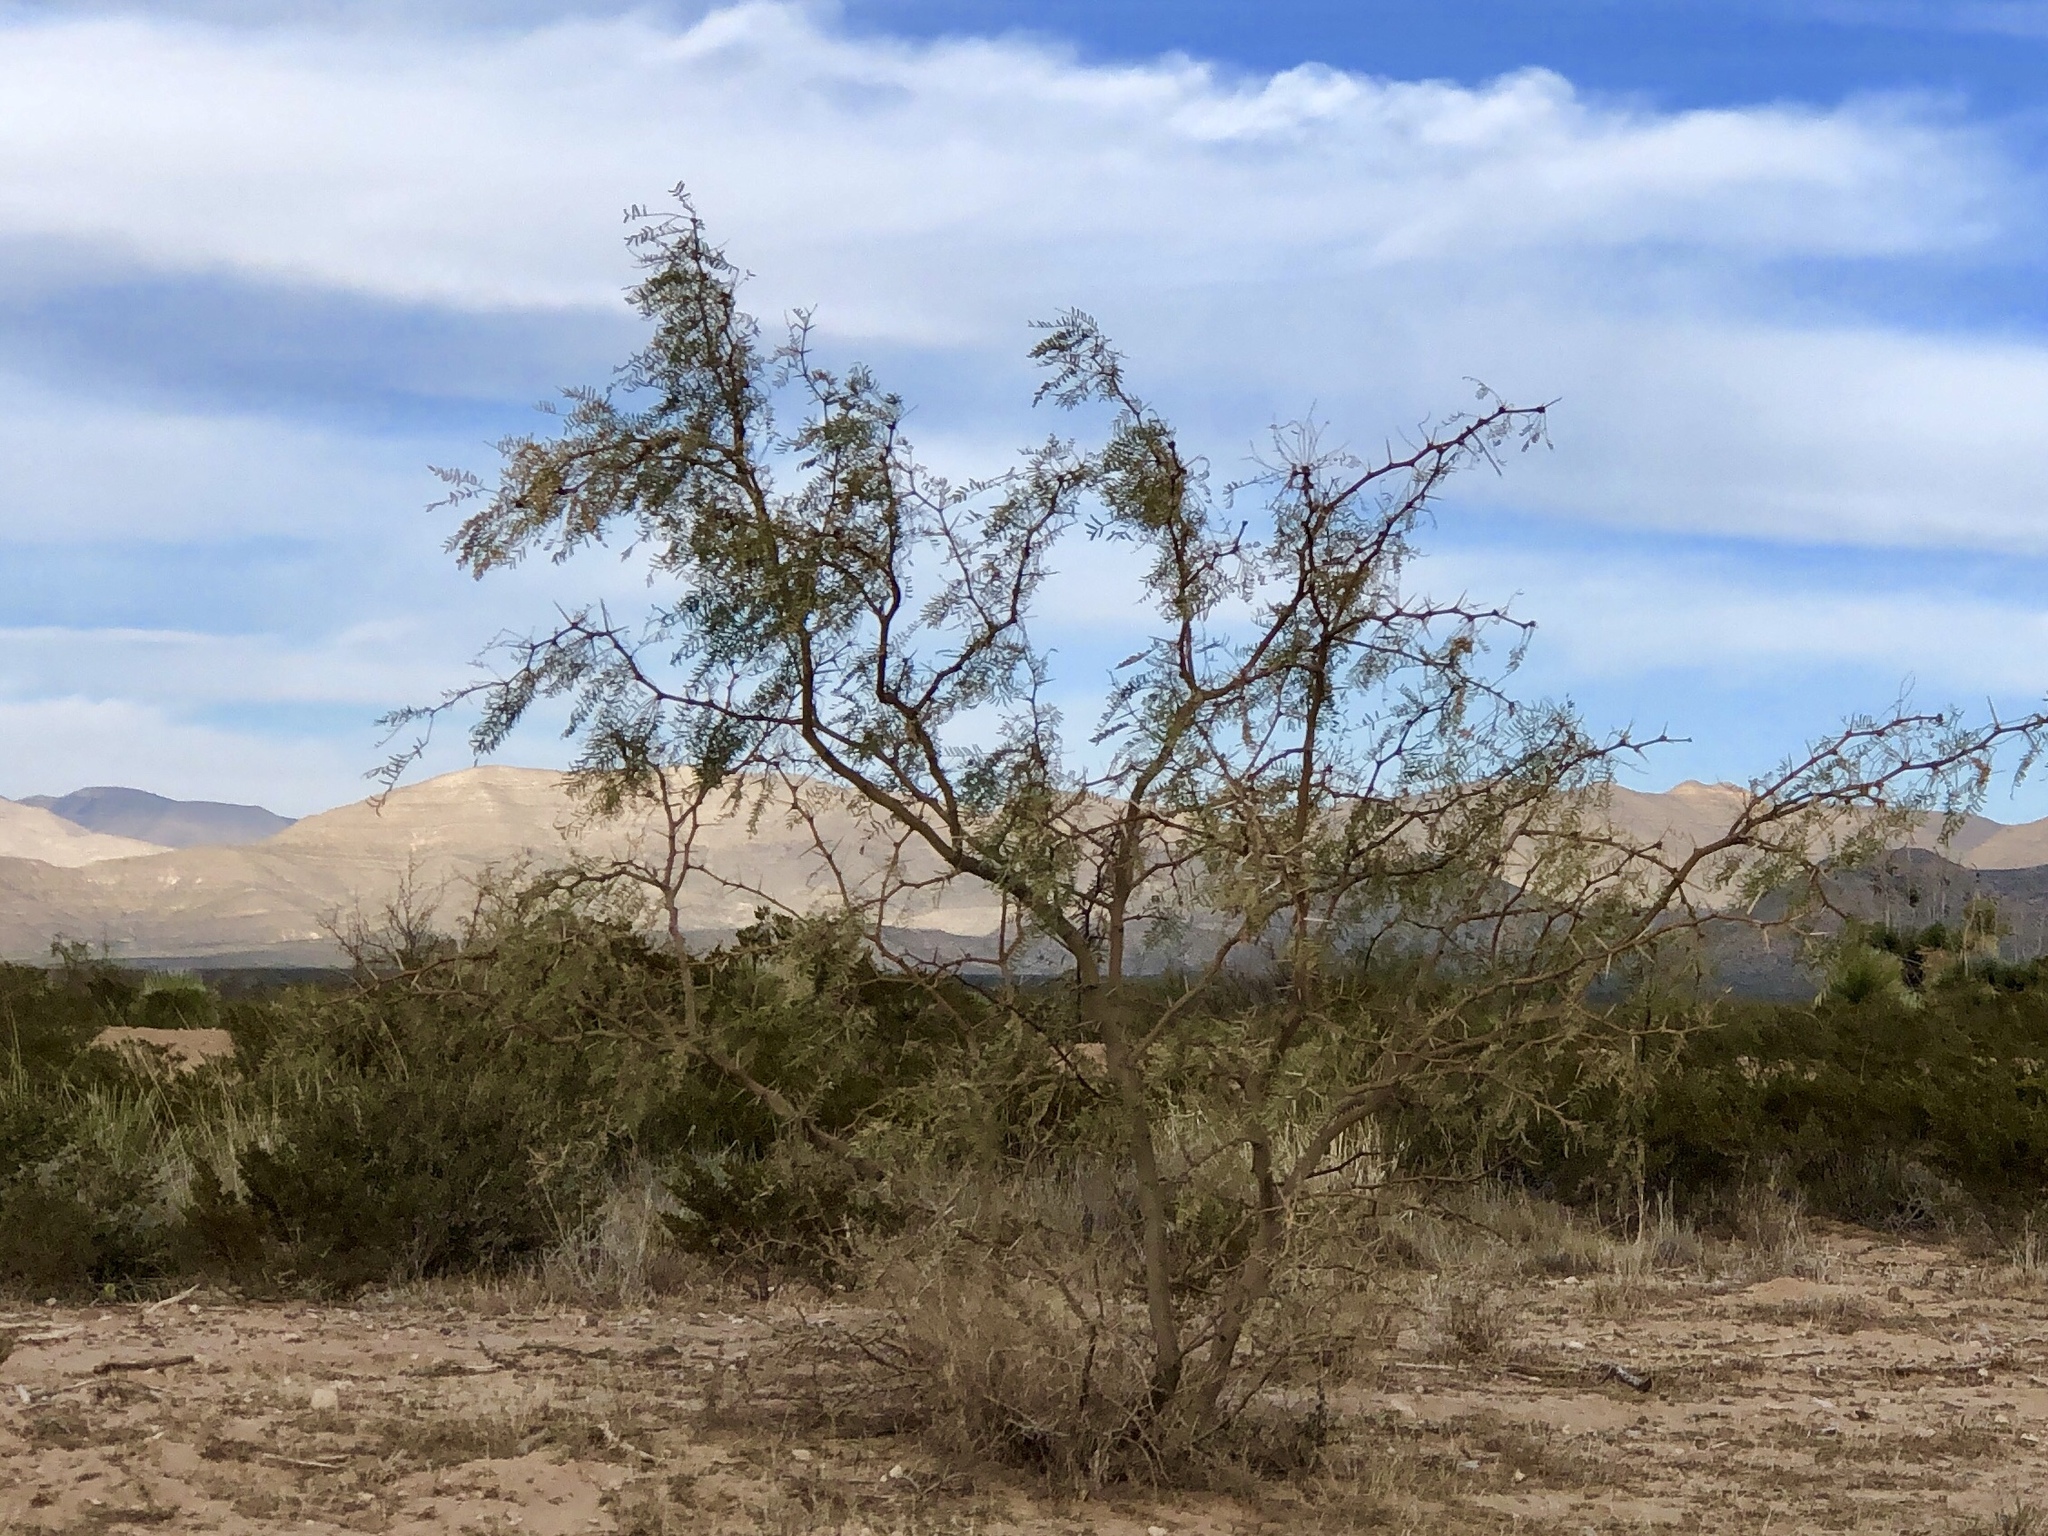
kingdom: Plantae
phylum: Tracheophyta
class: Magnoliopsida
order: Fabales
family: Fabaceae
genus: Prosopis
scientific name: Prosopis glandulosa
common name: Honey mesquite
